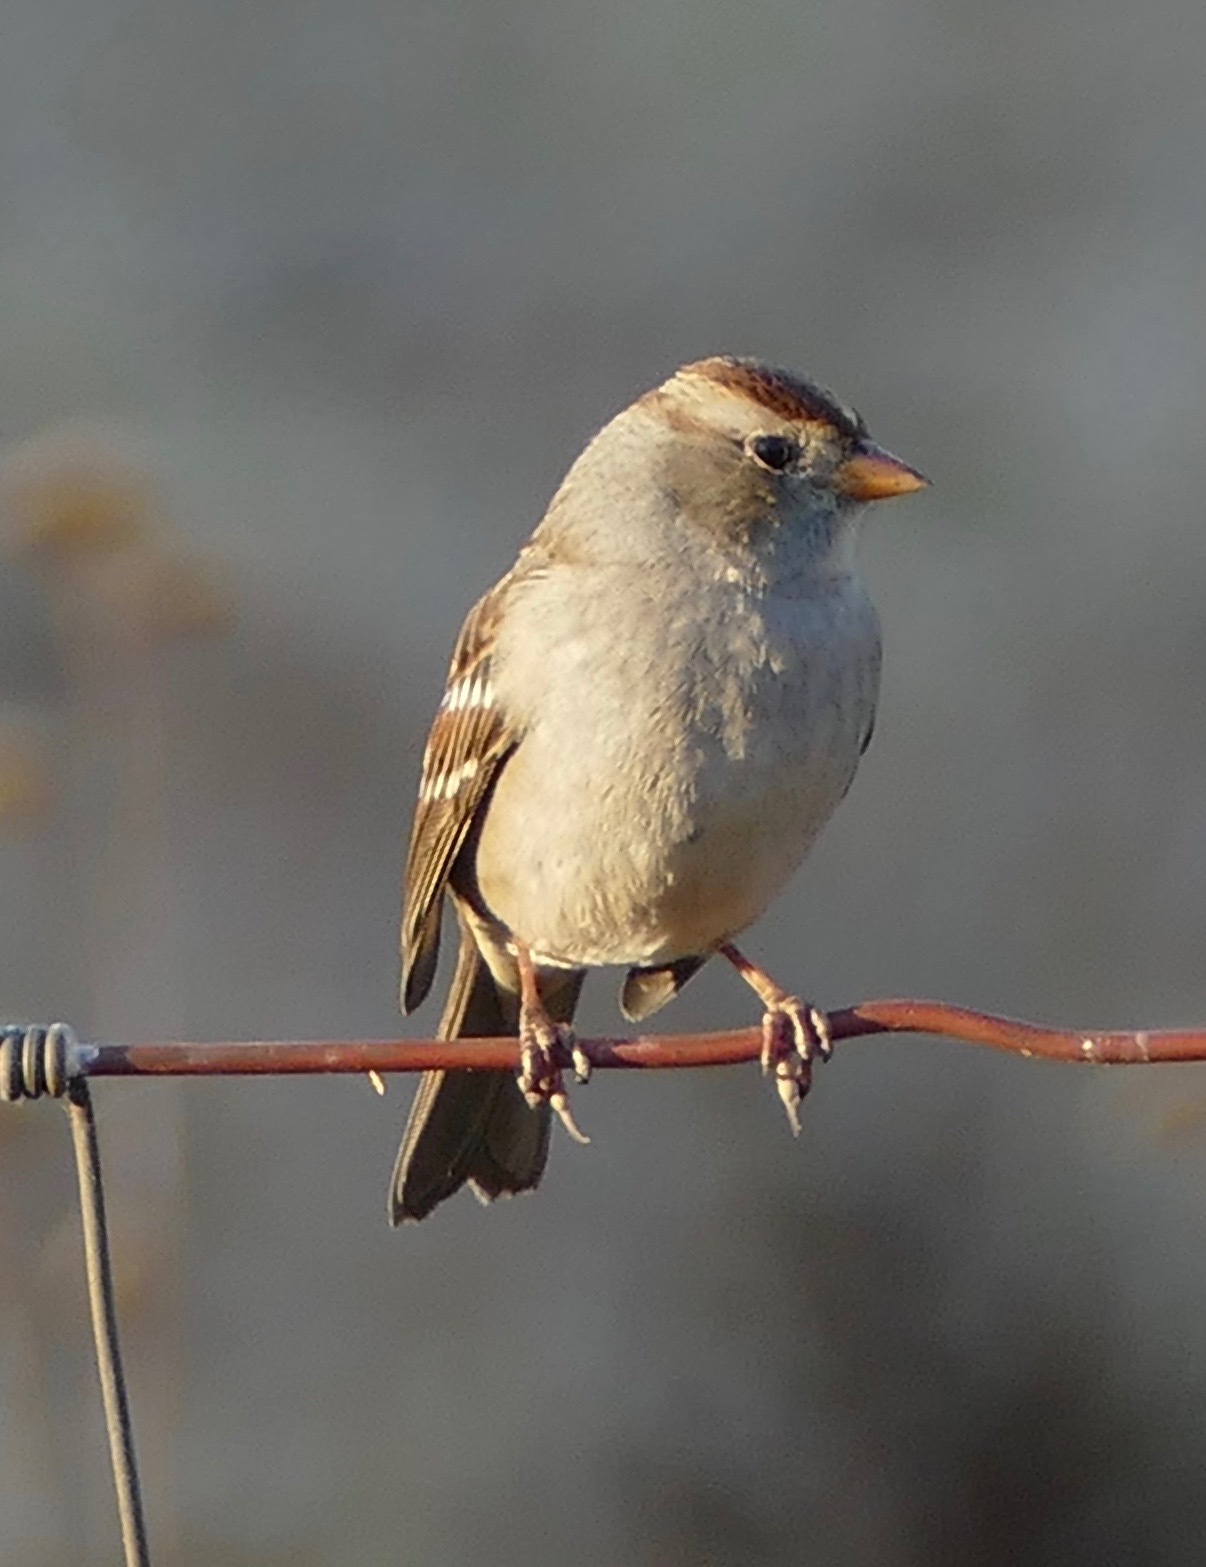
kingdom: Animalia
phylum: Chordata
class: Aves
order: Passeriformes
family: Passerellidae
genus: Zonotrichia
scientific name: Zonotrichia leucophrys
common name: White-crowned sparrow
